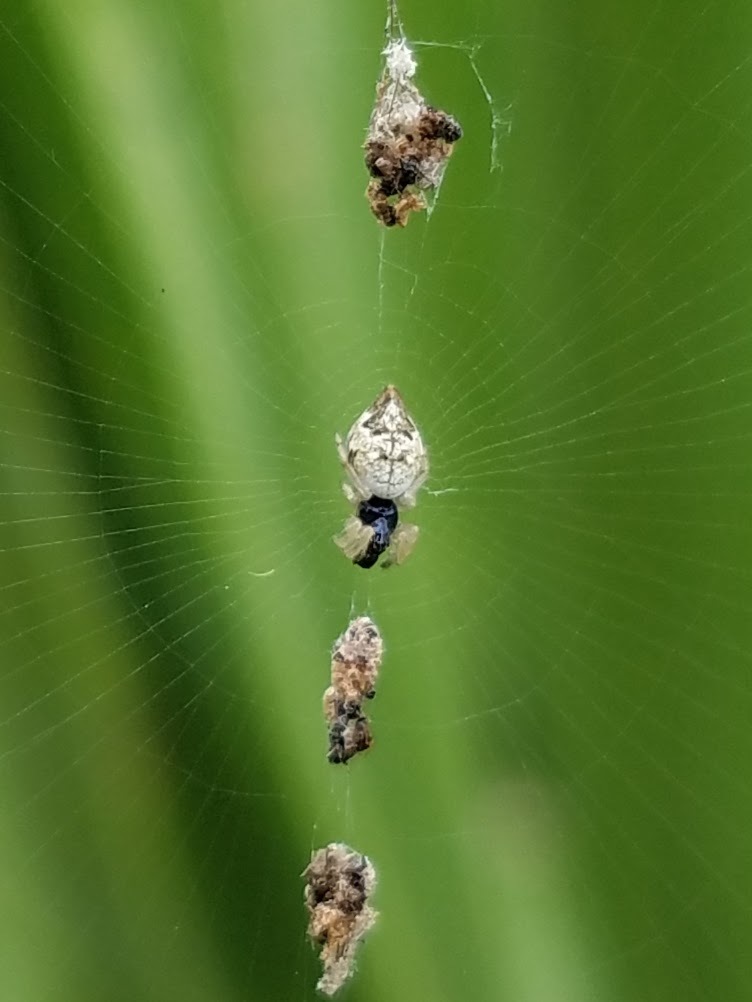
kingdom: Animalia
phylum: Arthropoda
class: Arachnida
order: Araneae
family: Araneidae
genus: Cyclosa
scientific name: Cyclosa turbinata
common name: Orb weavers
